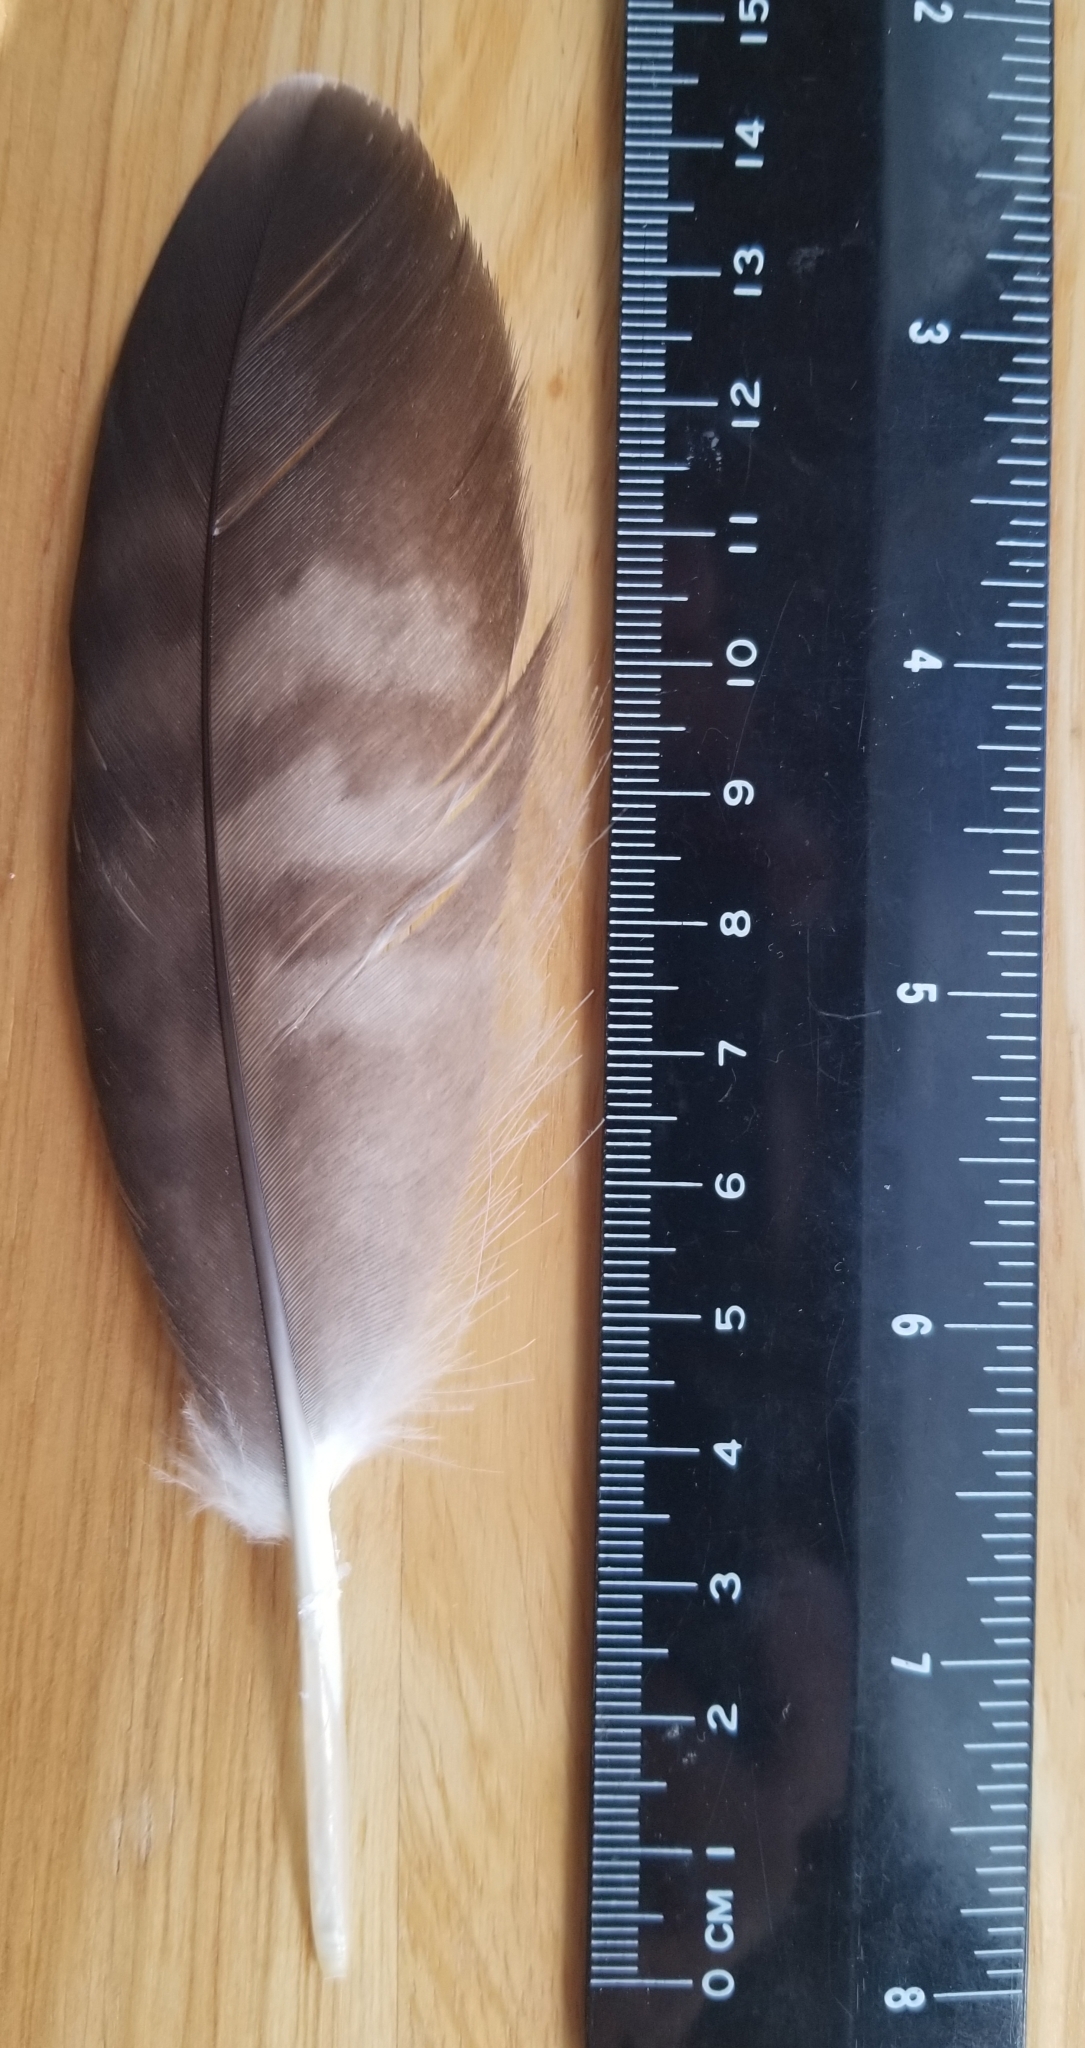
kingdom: Animalia
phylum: Chordata
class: Aves
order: Accipitriformes
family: Accipitridae
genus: Buteo
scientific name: Buteo jamaicensis
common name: Red-tailed hawk
